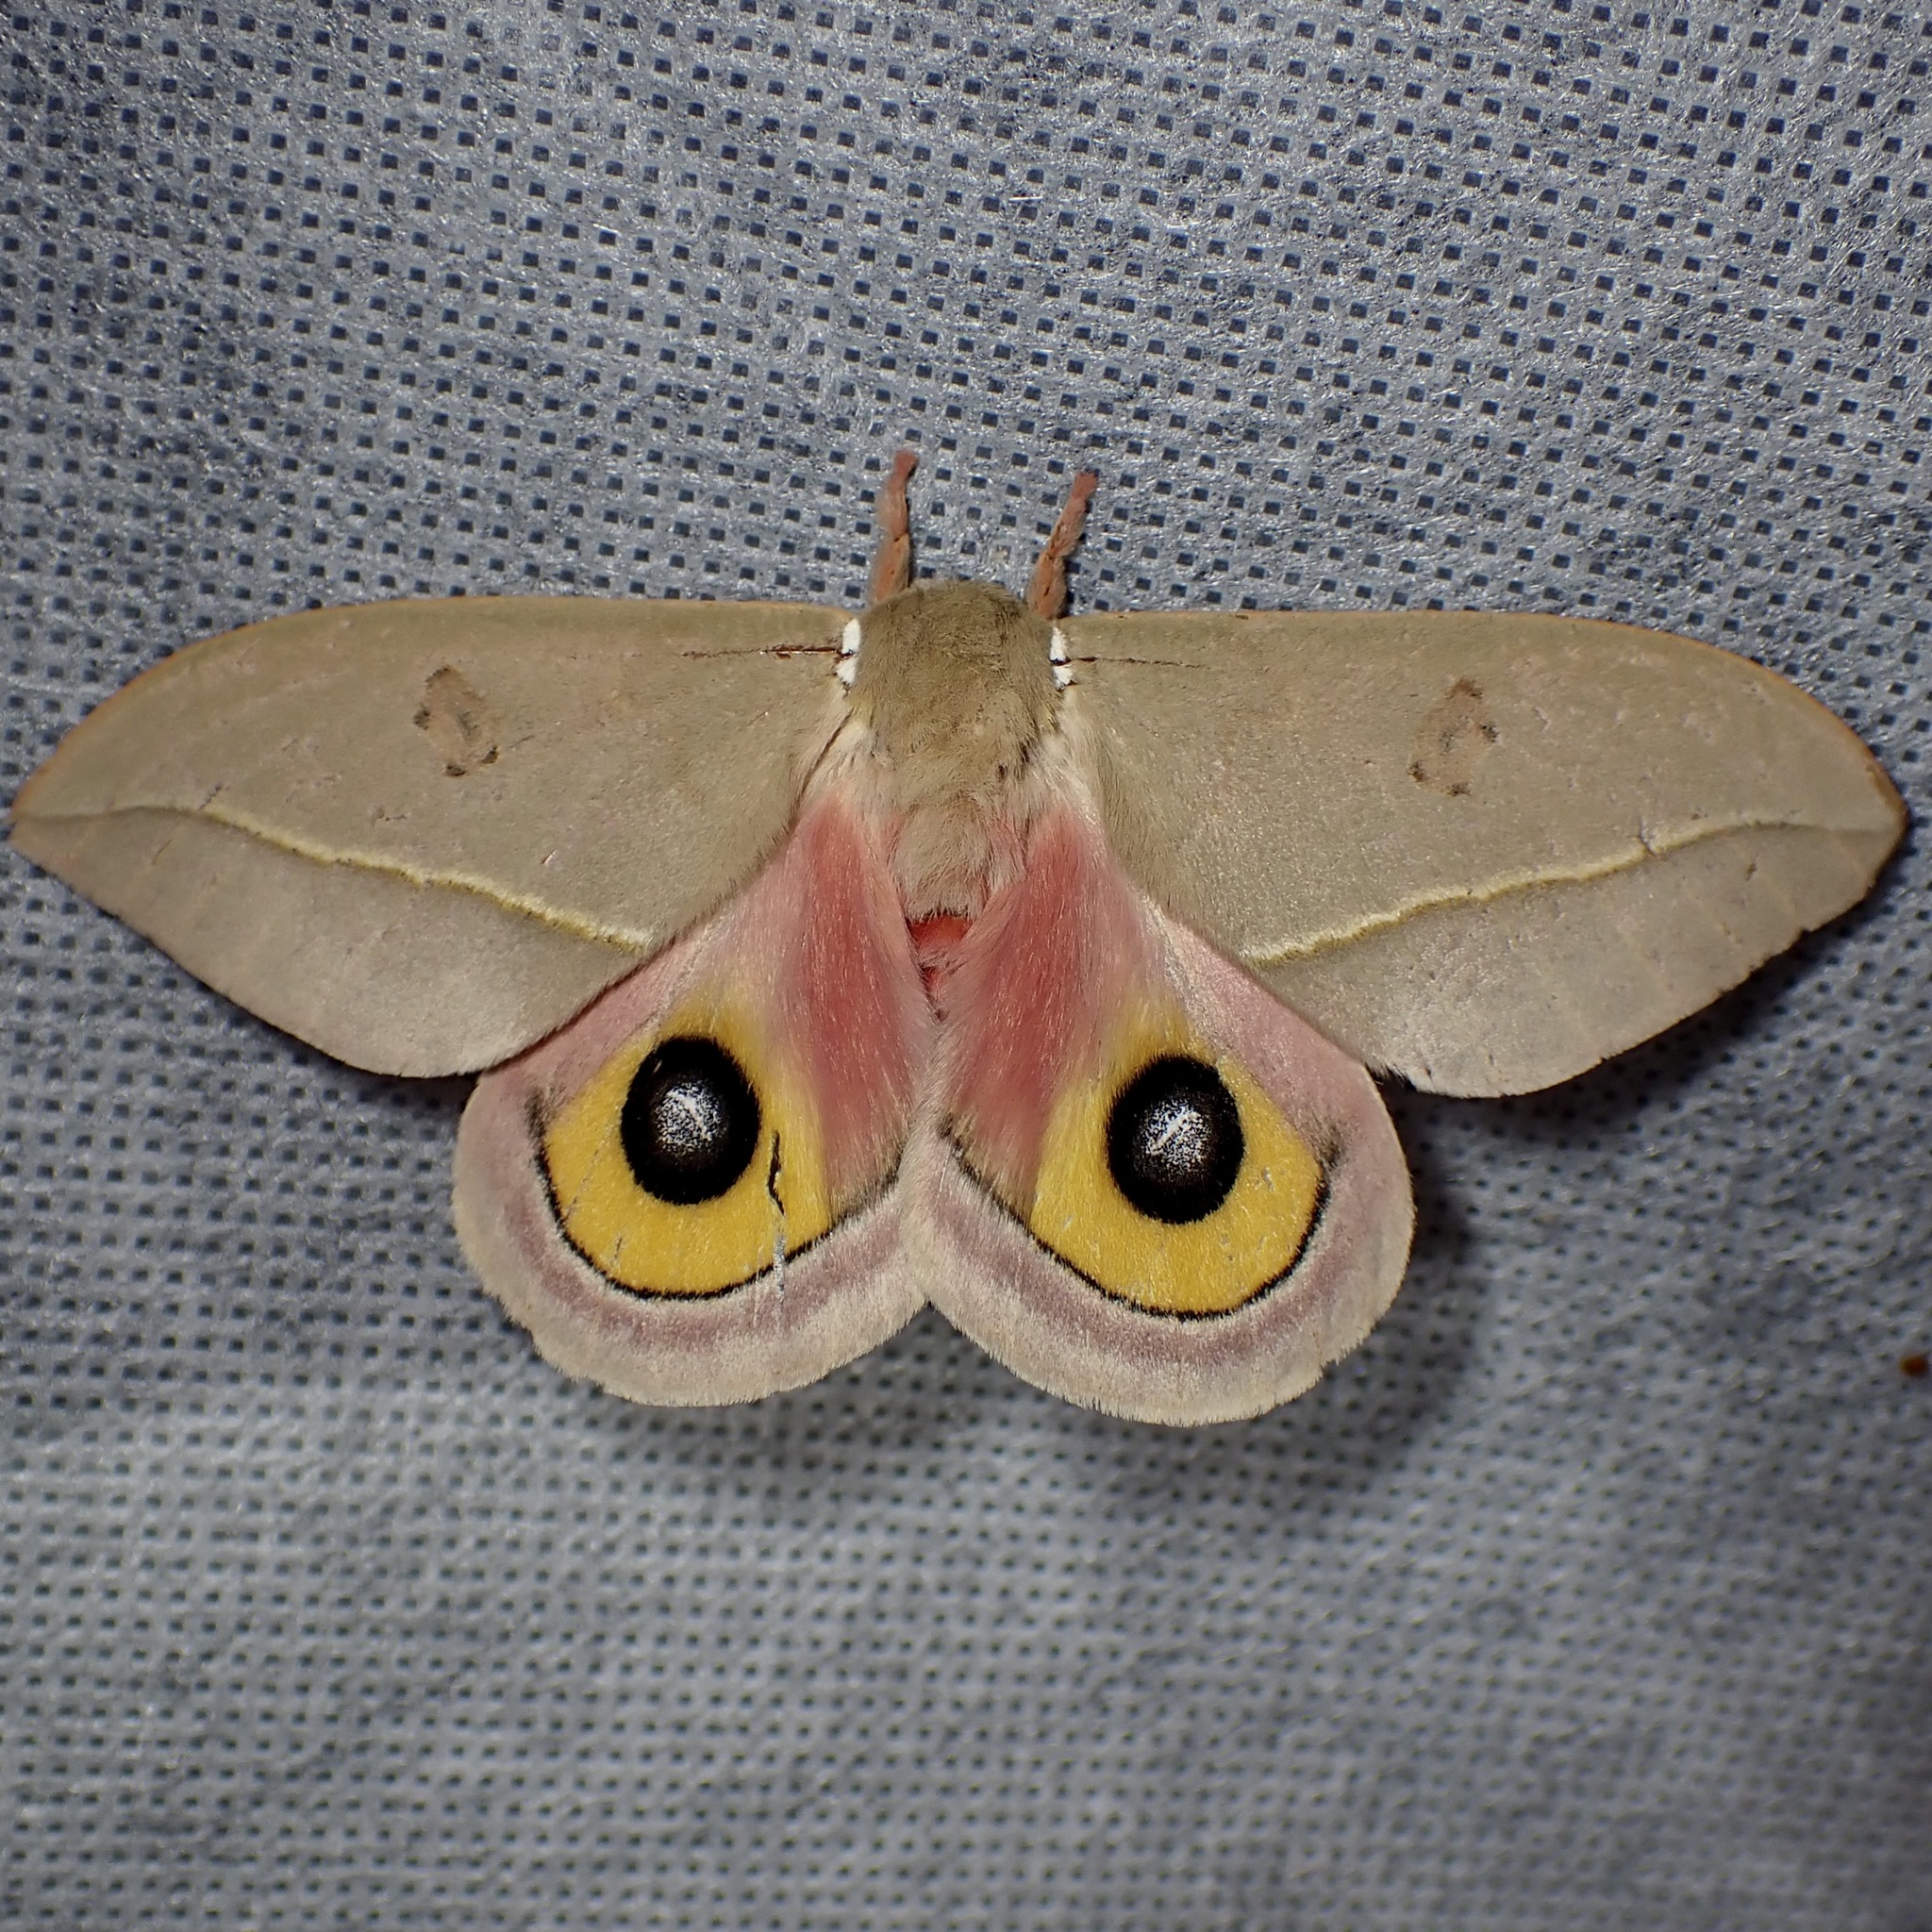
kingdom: Animalia
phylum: Arthropoda
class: Insecta
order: Lepidoptera
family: Saturniidae
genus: Automeris
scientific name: Automeris cecrops
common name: Cecrops eyed silkmoth
